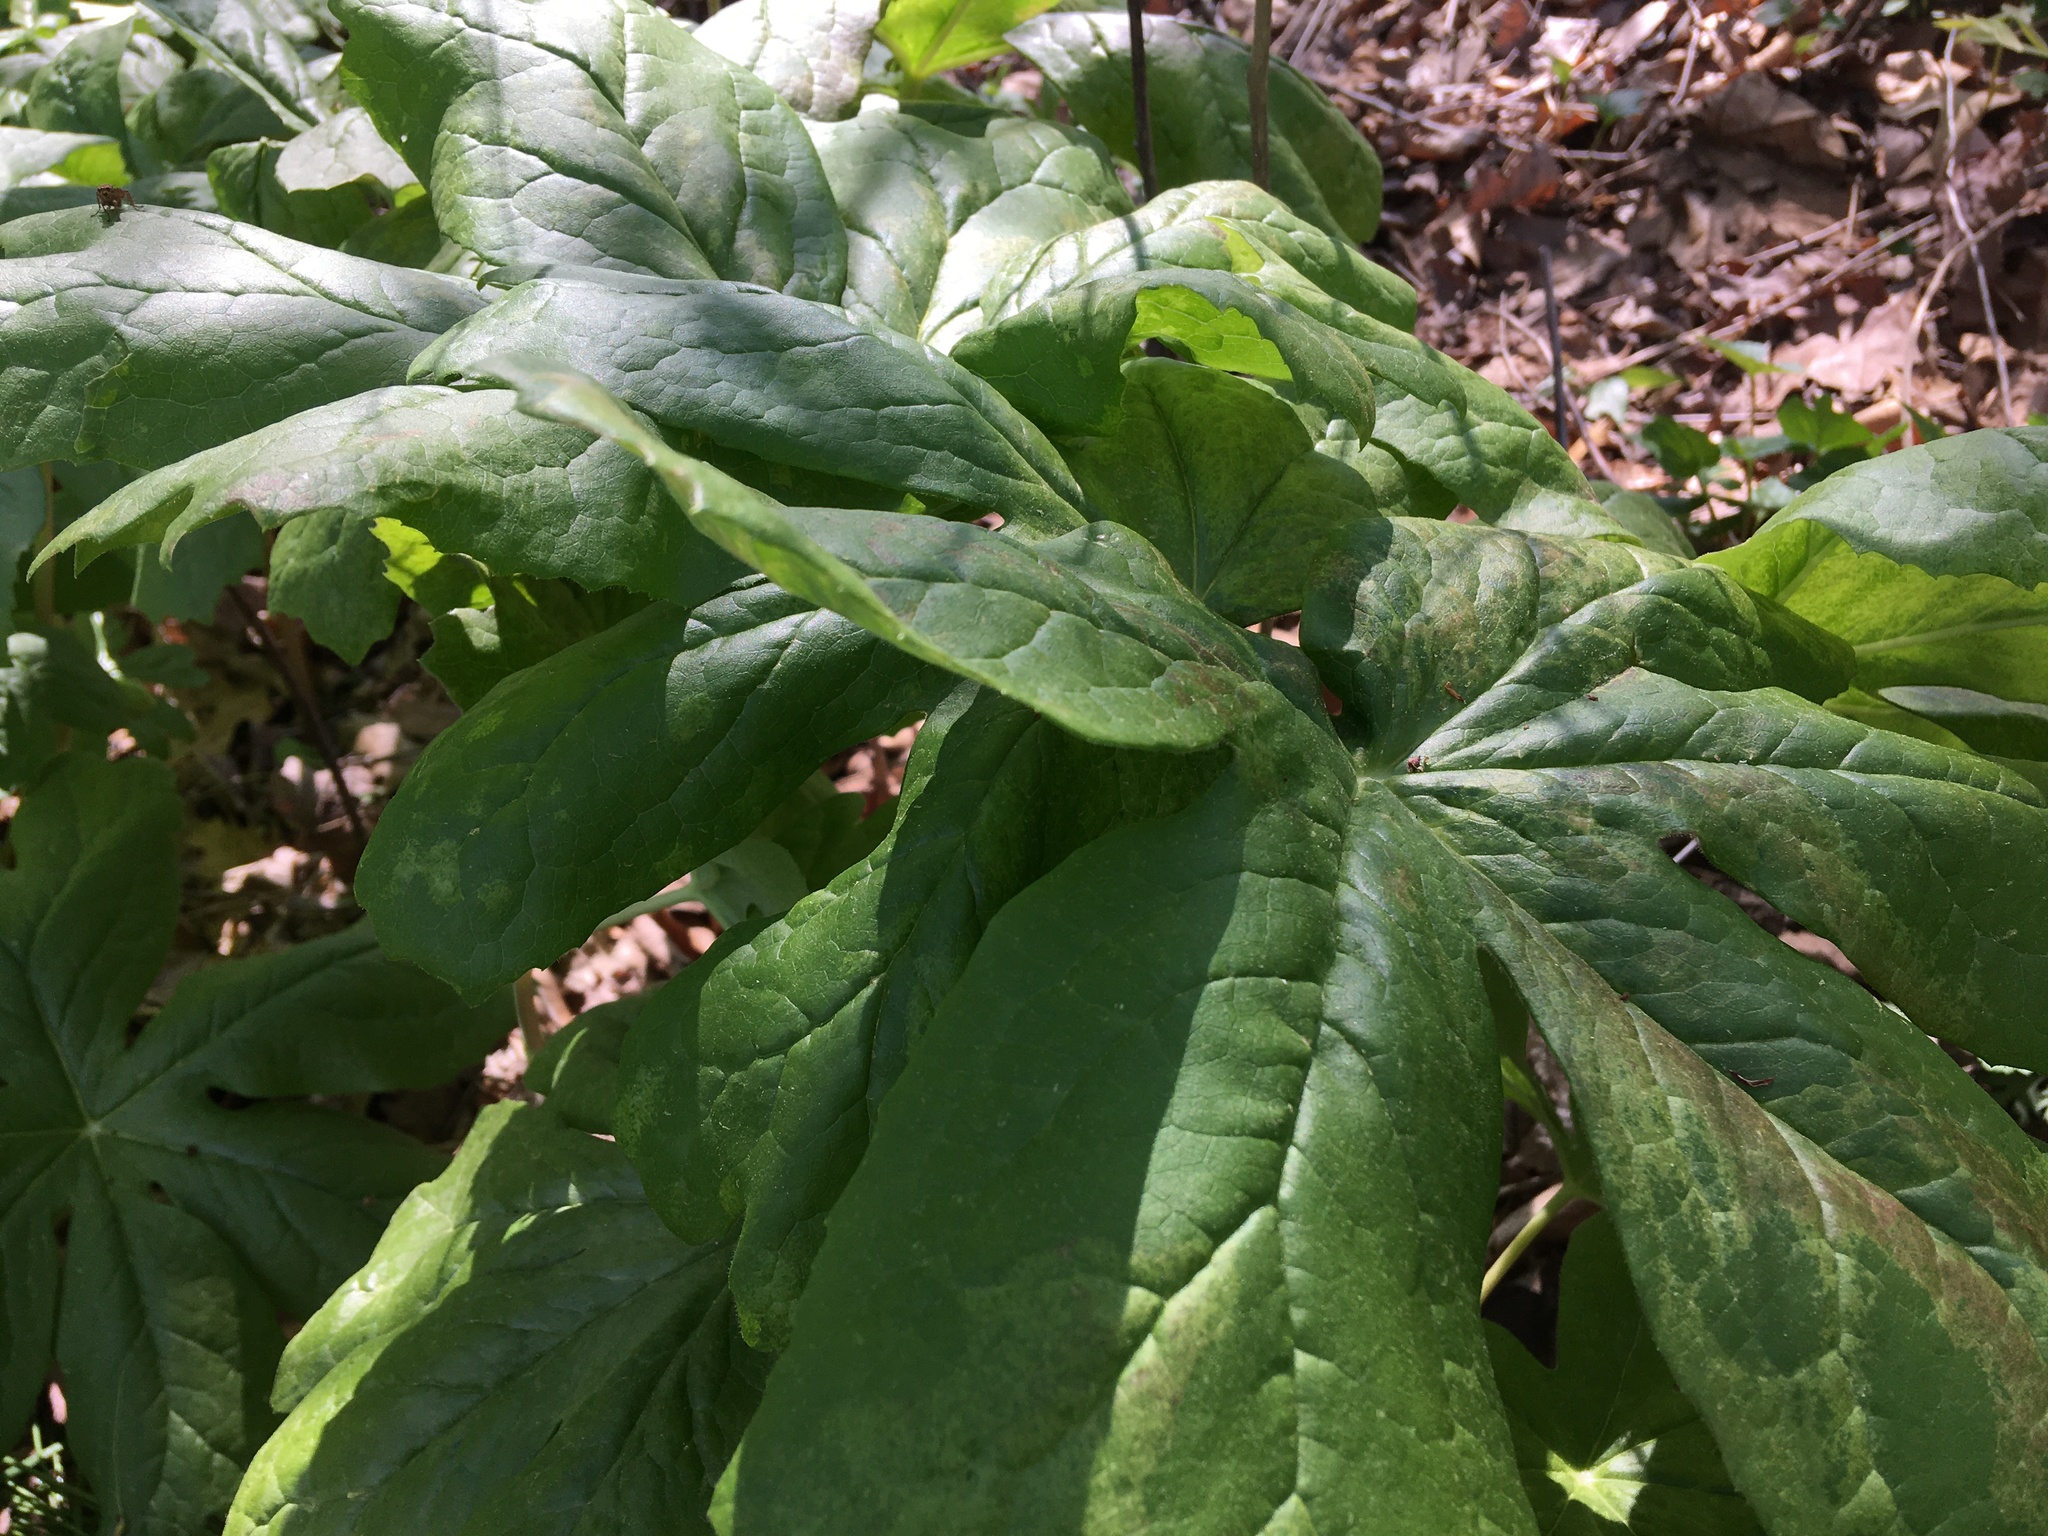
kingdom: Plantae
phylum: Tracheophyta
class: Magnoliopsida
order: Ranunculales
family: Berberidaceae
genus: Podophyllum
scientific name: Podophyllum peltatum
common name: Wild mandrake
